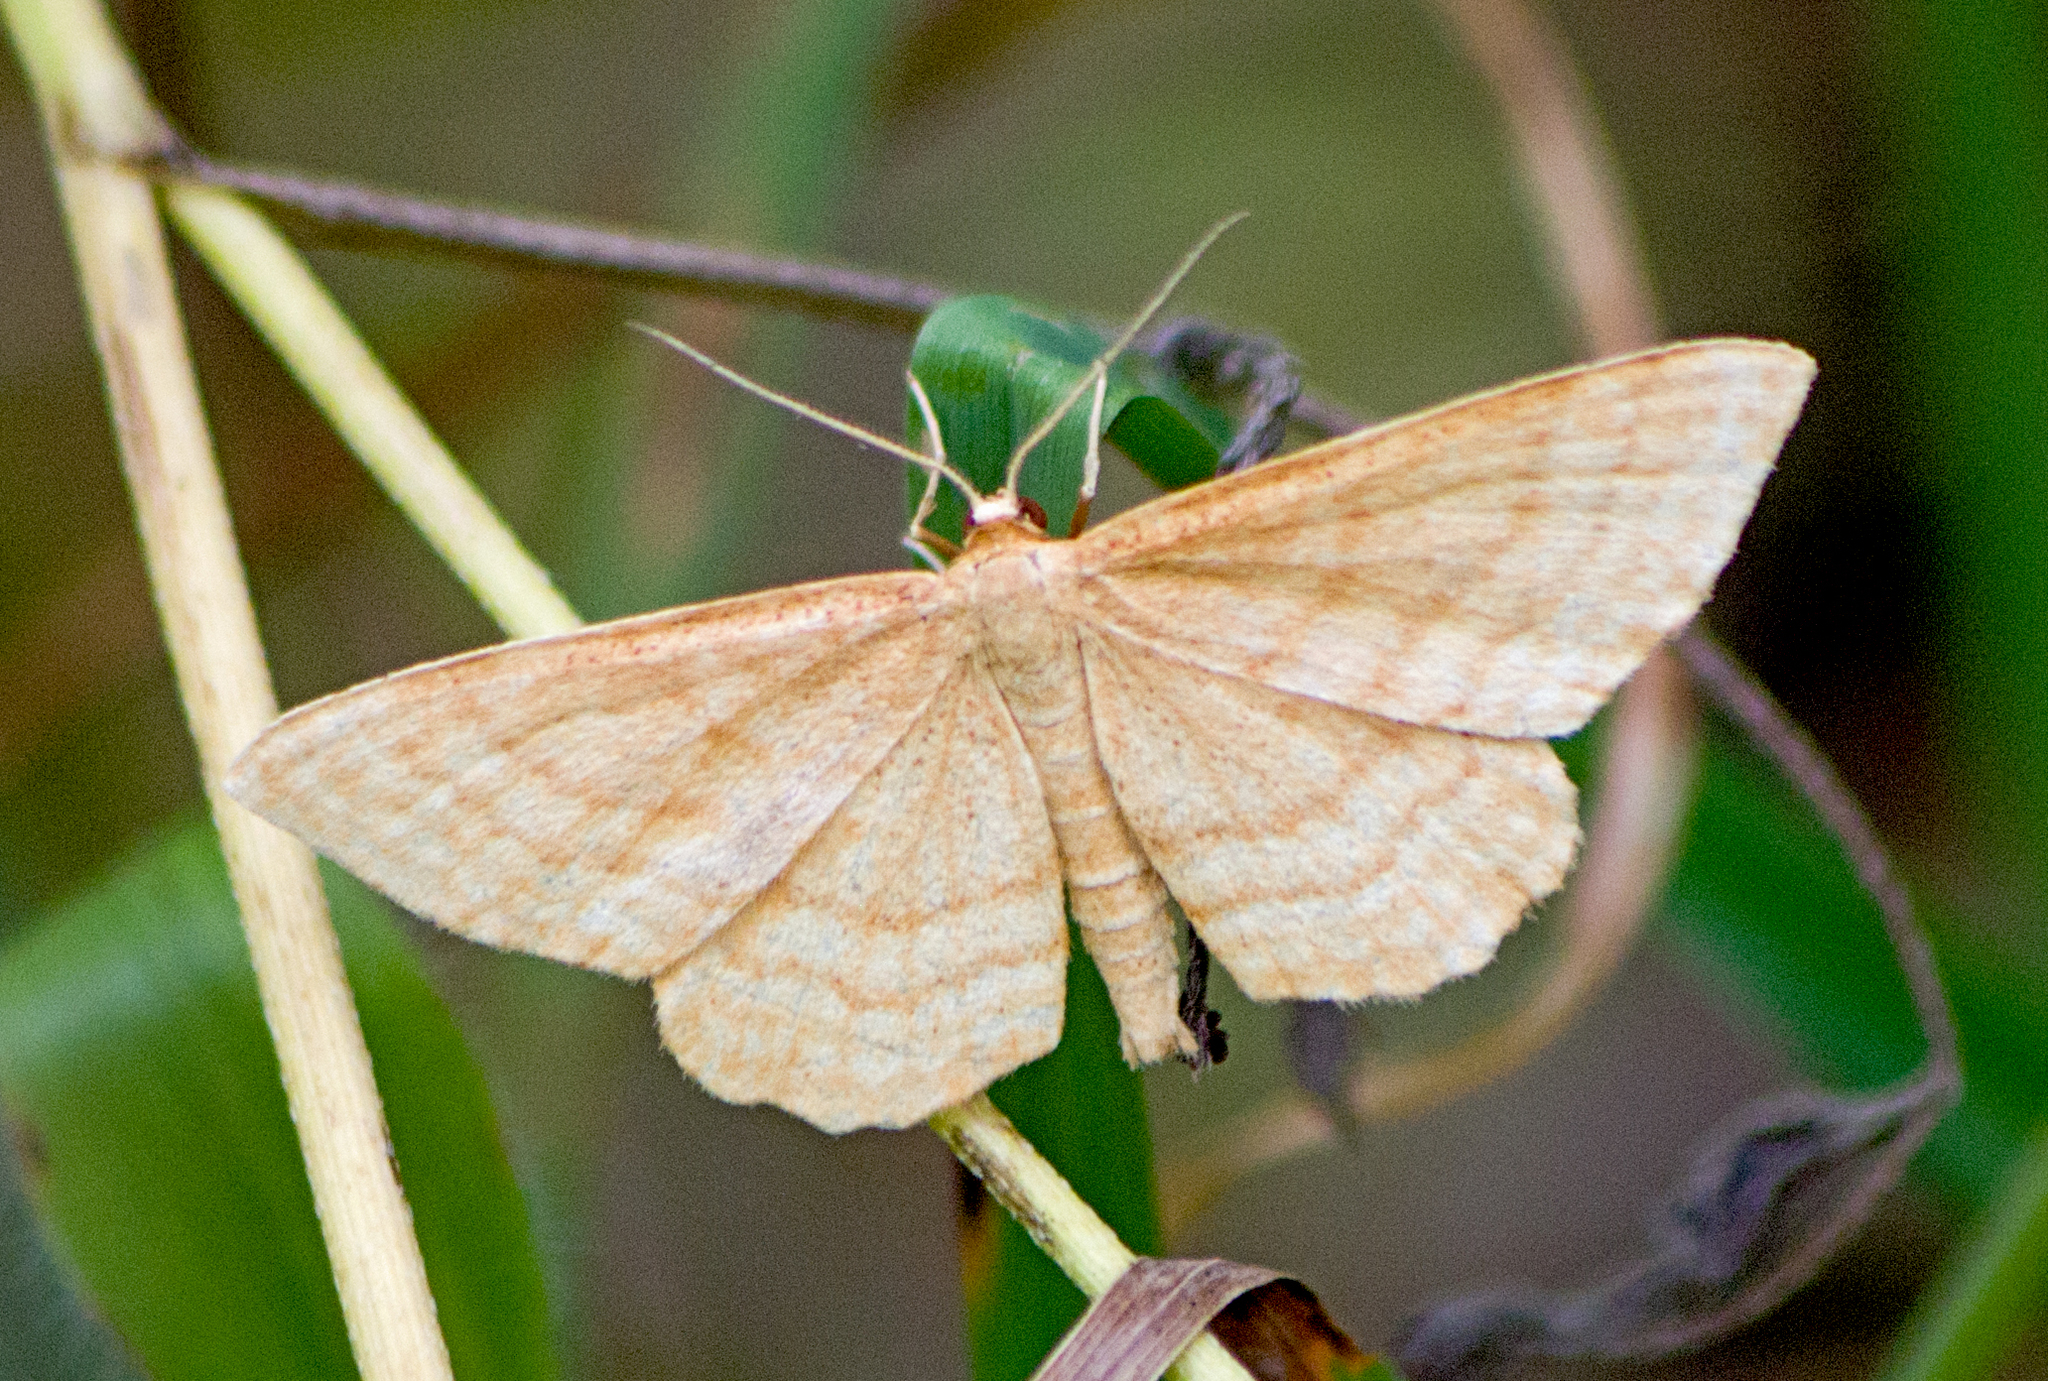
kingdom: Animalia
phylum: Arthropoda
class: Insecta
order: Lepidoptera
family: Geometridae
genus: Idaea
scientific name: Idaea ochrata
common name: Bright wave
